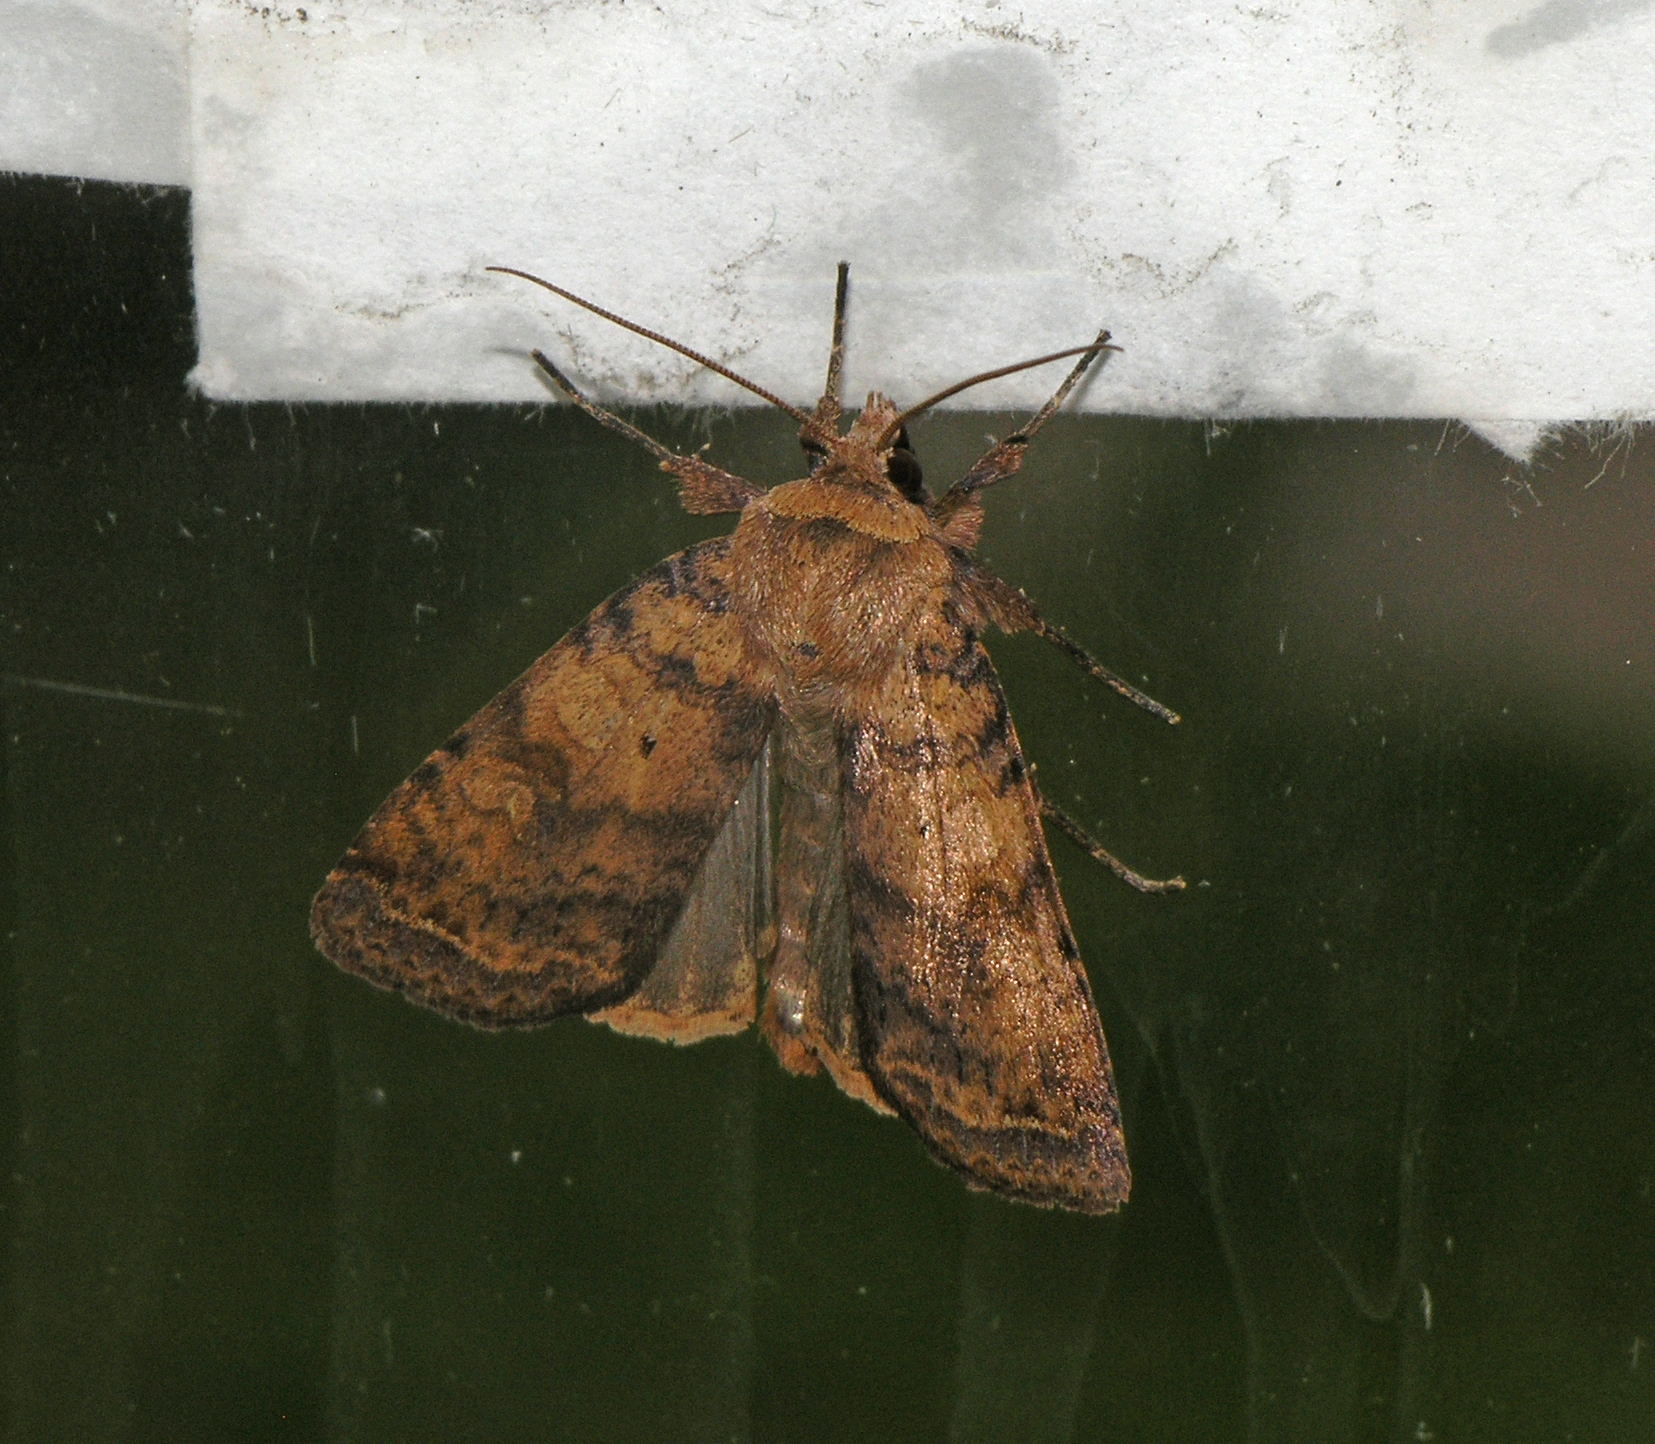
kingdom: Animalia
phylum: Arthropoda
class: Insecta
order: Lepidoptera
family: Noctuidae
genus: Diarsia
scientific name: Diarsia dahlii
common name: Barred chestnut
